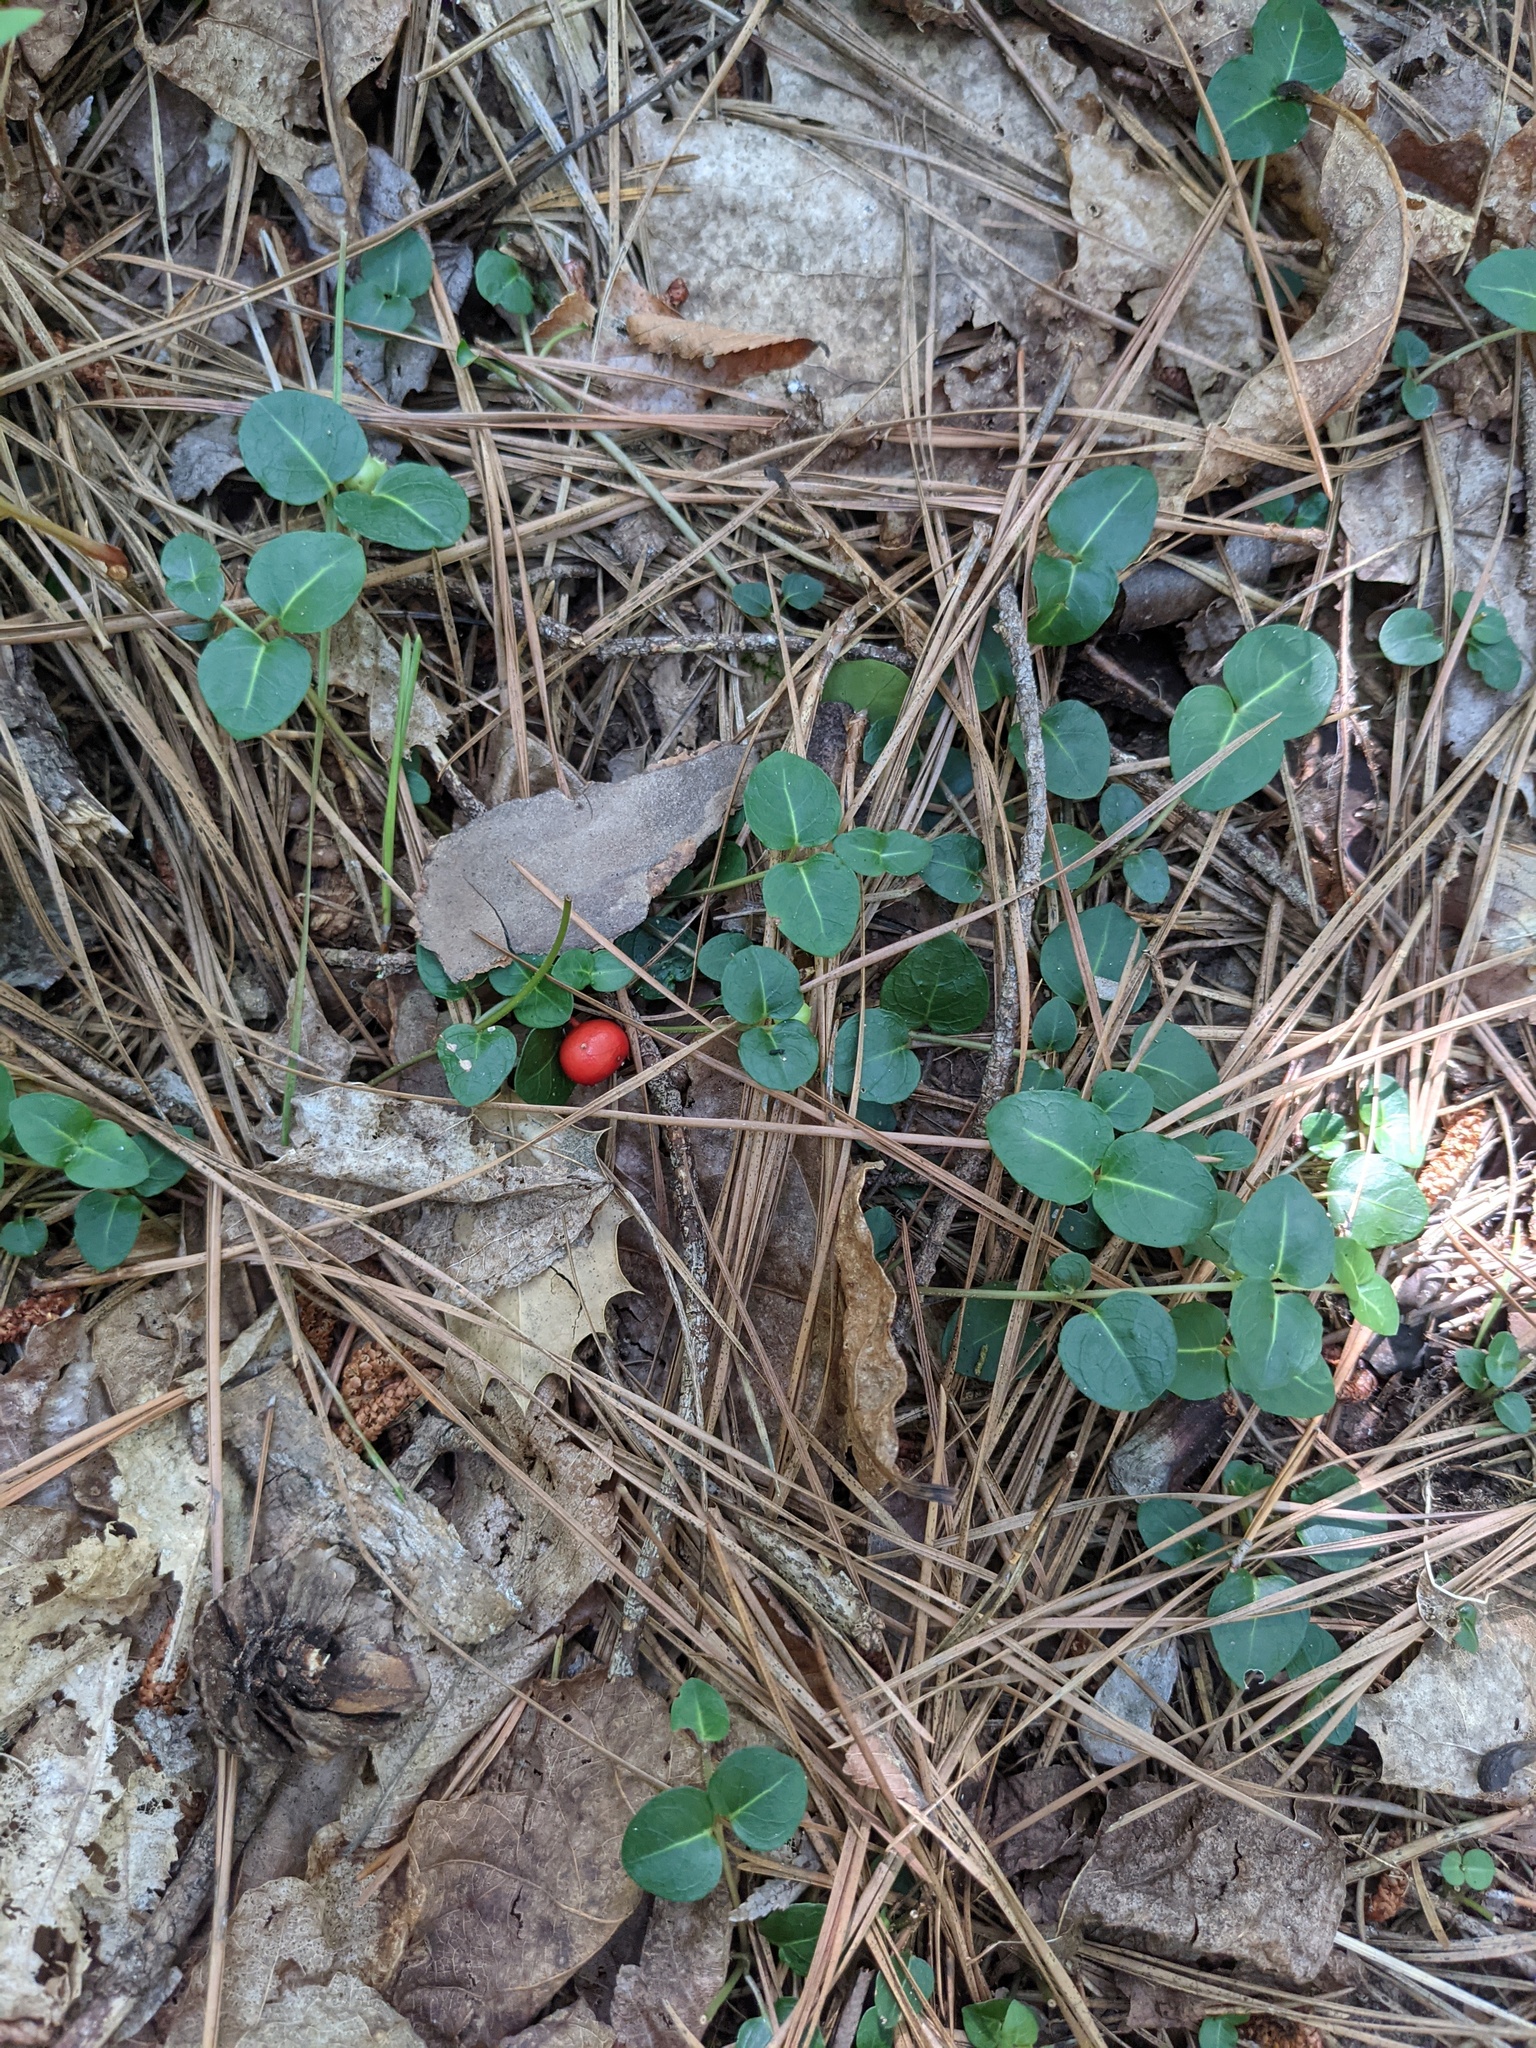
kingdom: Plantae
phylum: Tracheophyta
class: Magnoliopsida
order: Gentianales
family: Rubiaceae
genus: Mitchella
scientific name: Mitchella repens
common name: Partridge-berry
